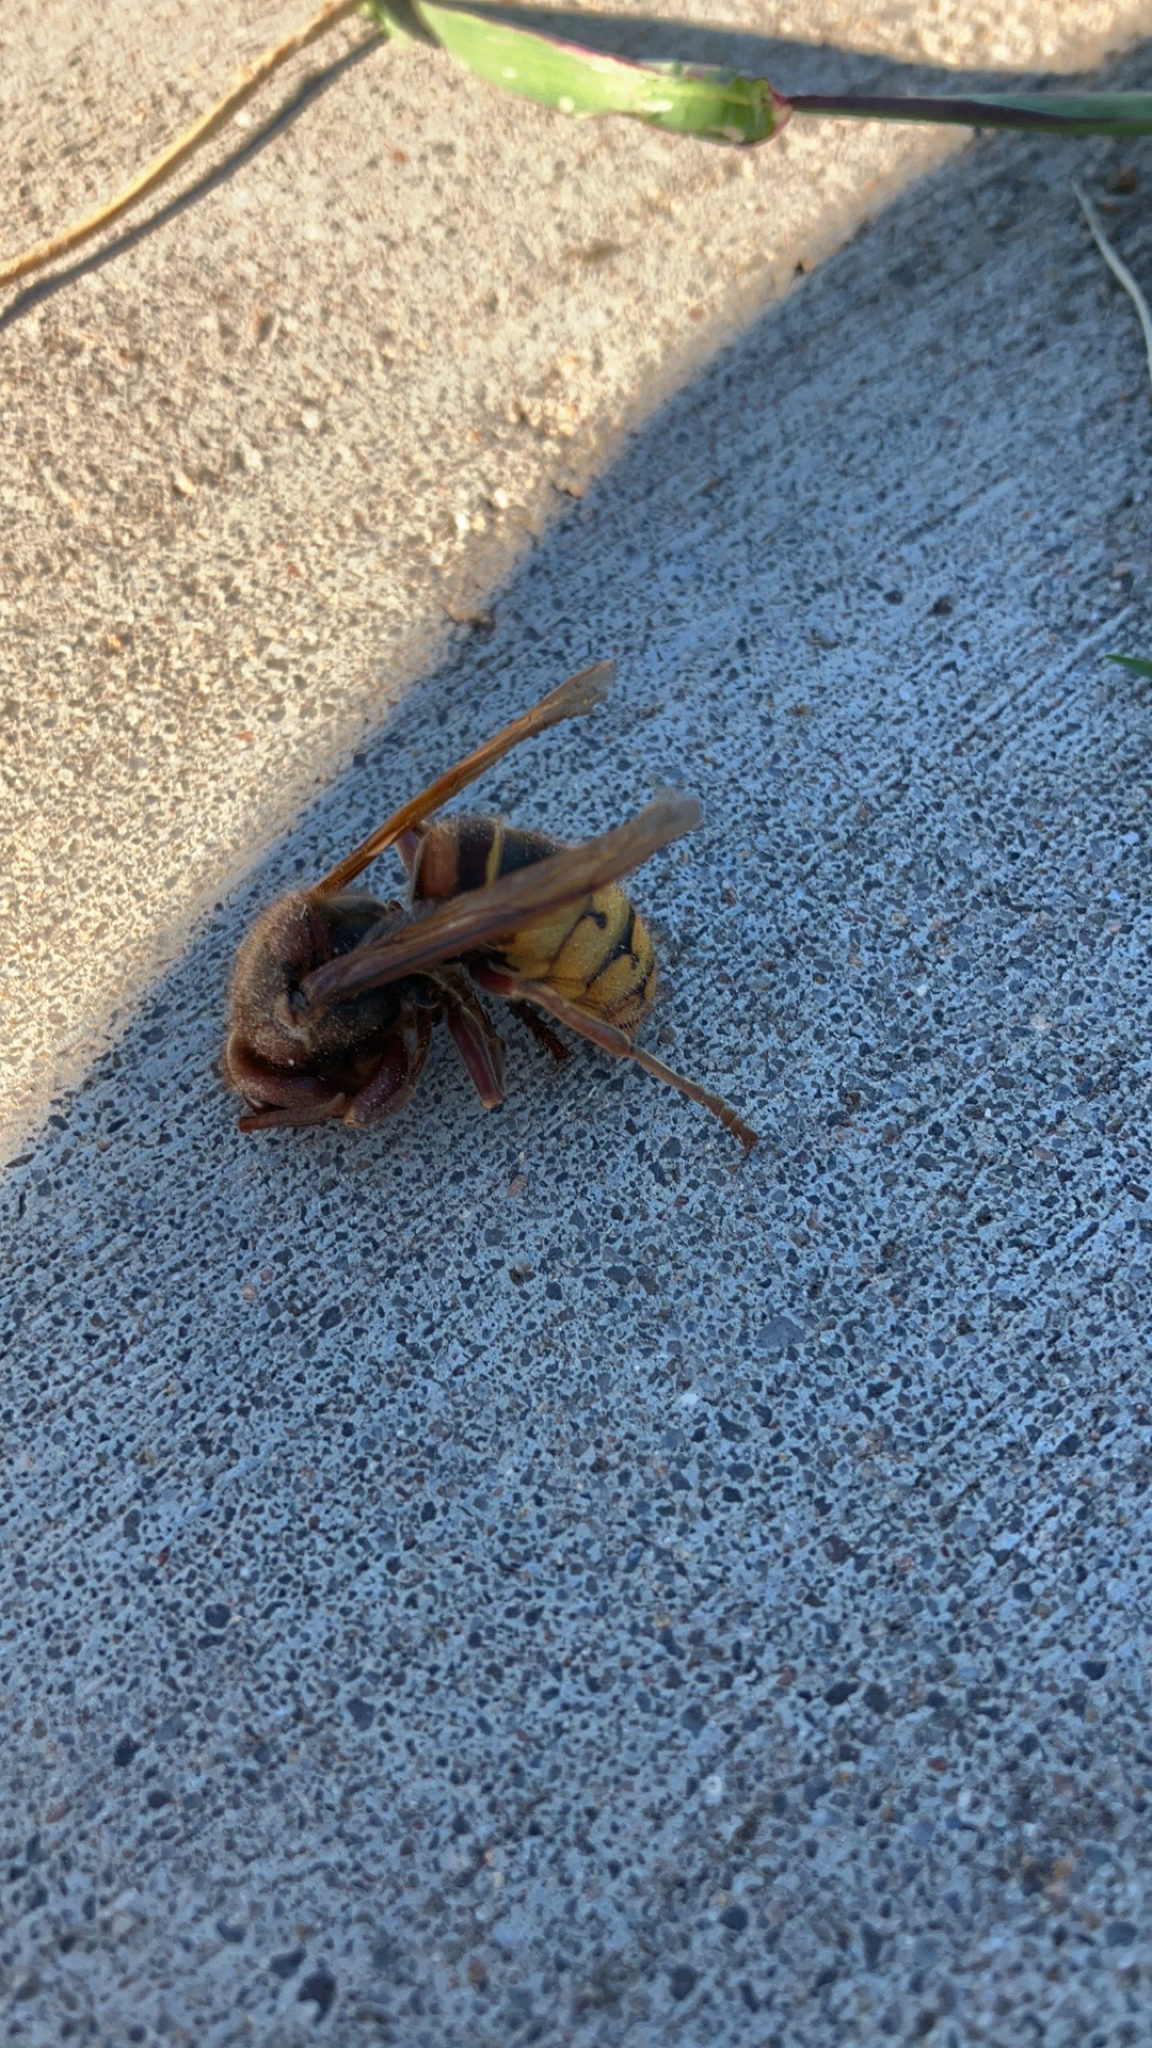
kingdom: Animalia
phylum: Arthropoda
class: Insecta
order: Hymenoptera
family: Vespidae
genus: Vespa
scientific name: Vespa crabro
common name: Hornet
